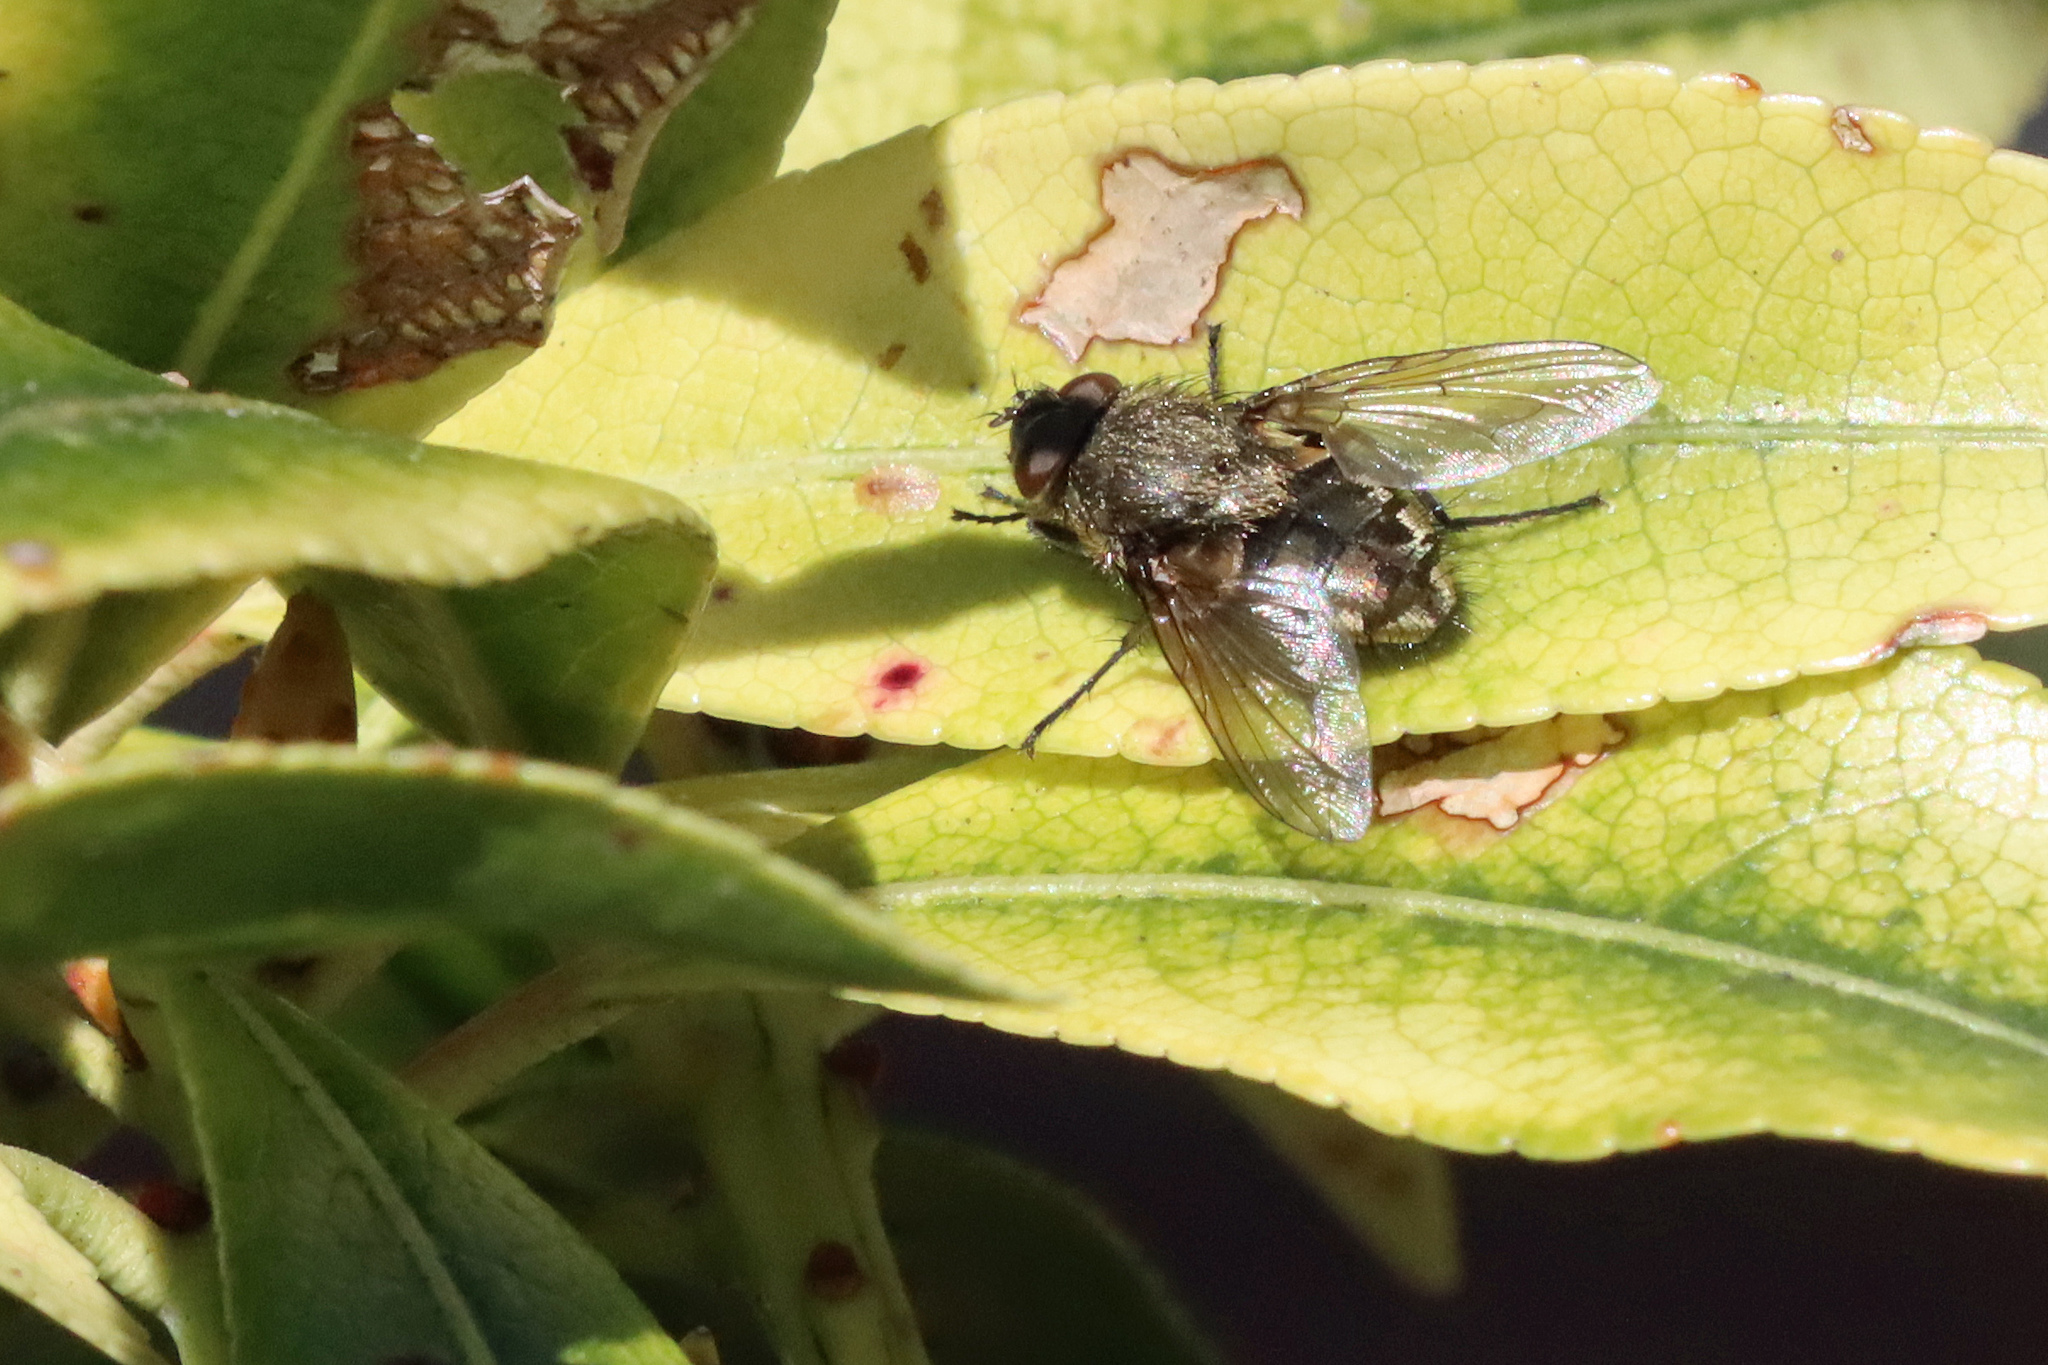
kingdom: Animalia
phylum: Arthropoda
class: Insecta
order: Diptera
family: Polleniidae
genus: Pollenia
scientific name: Pollenia
